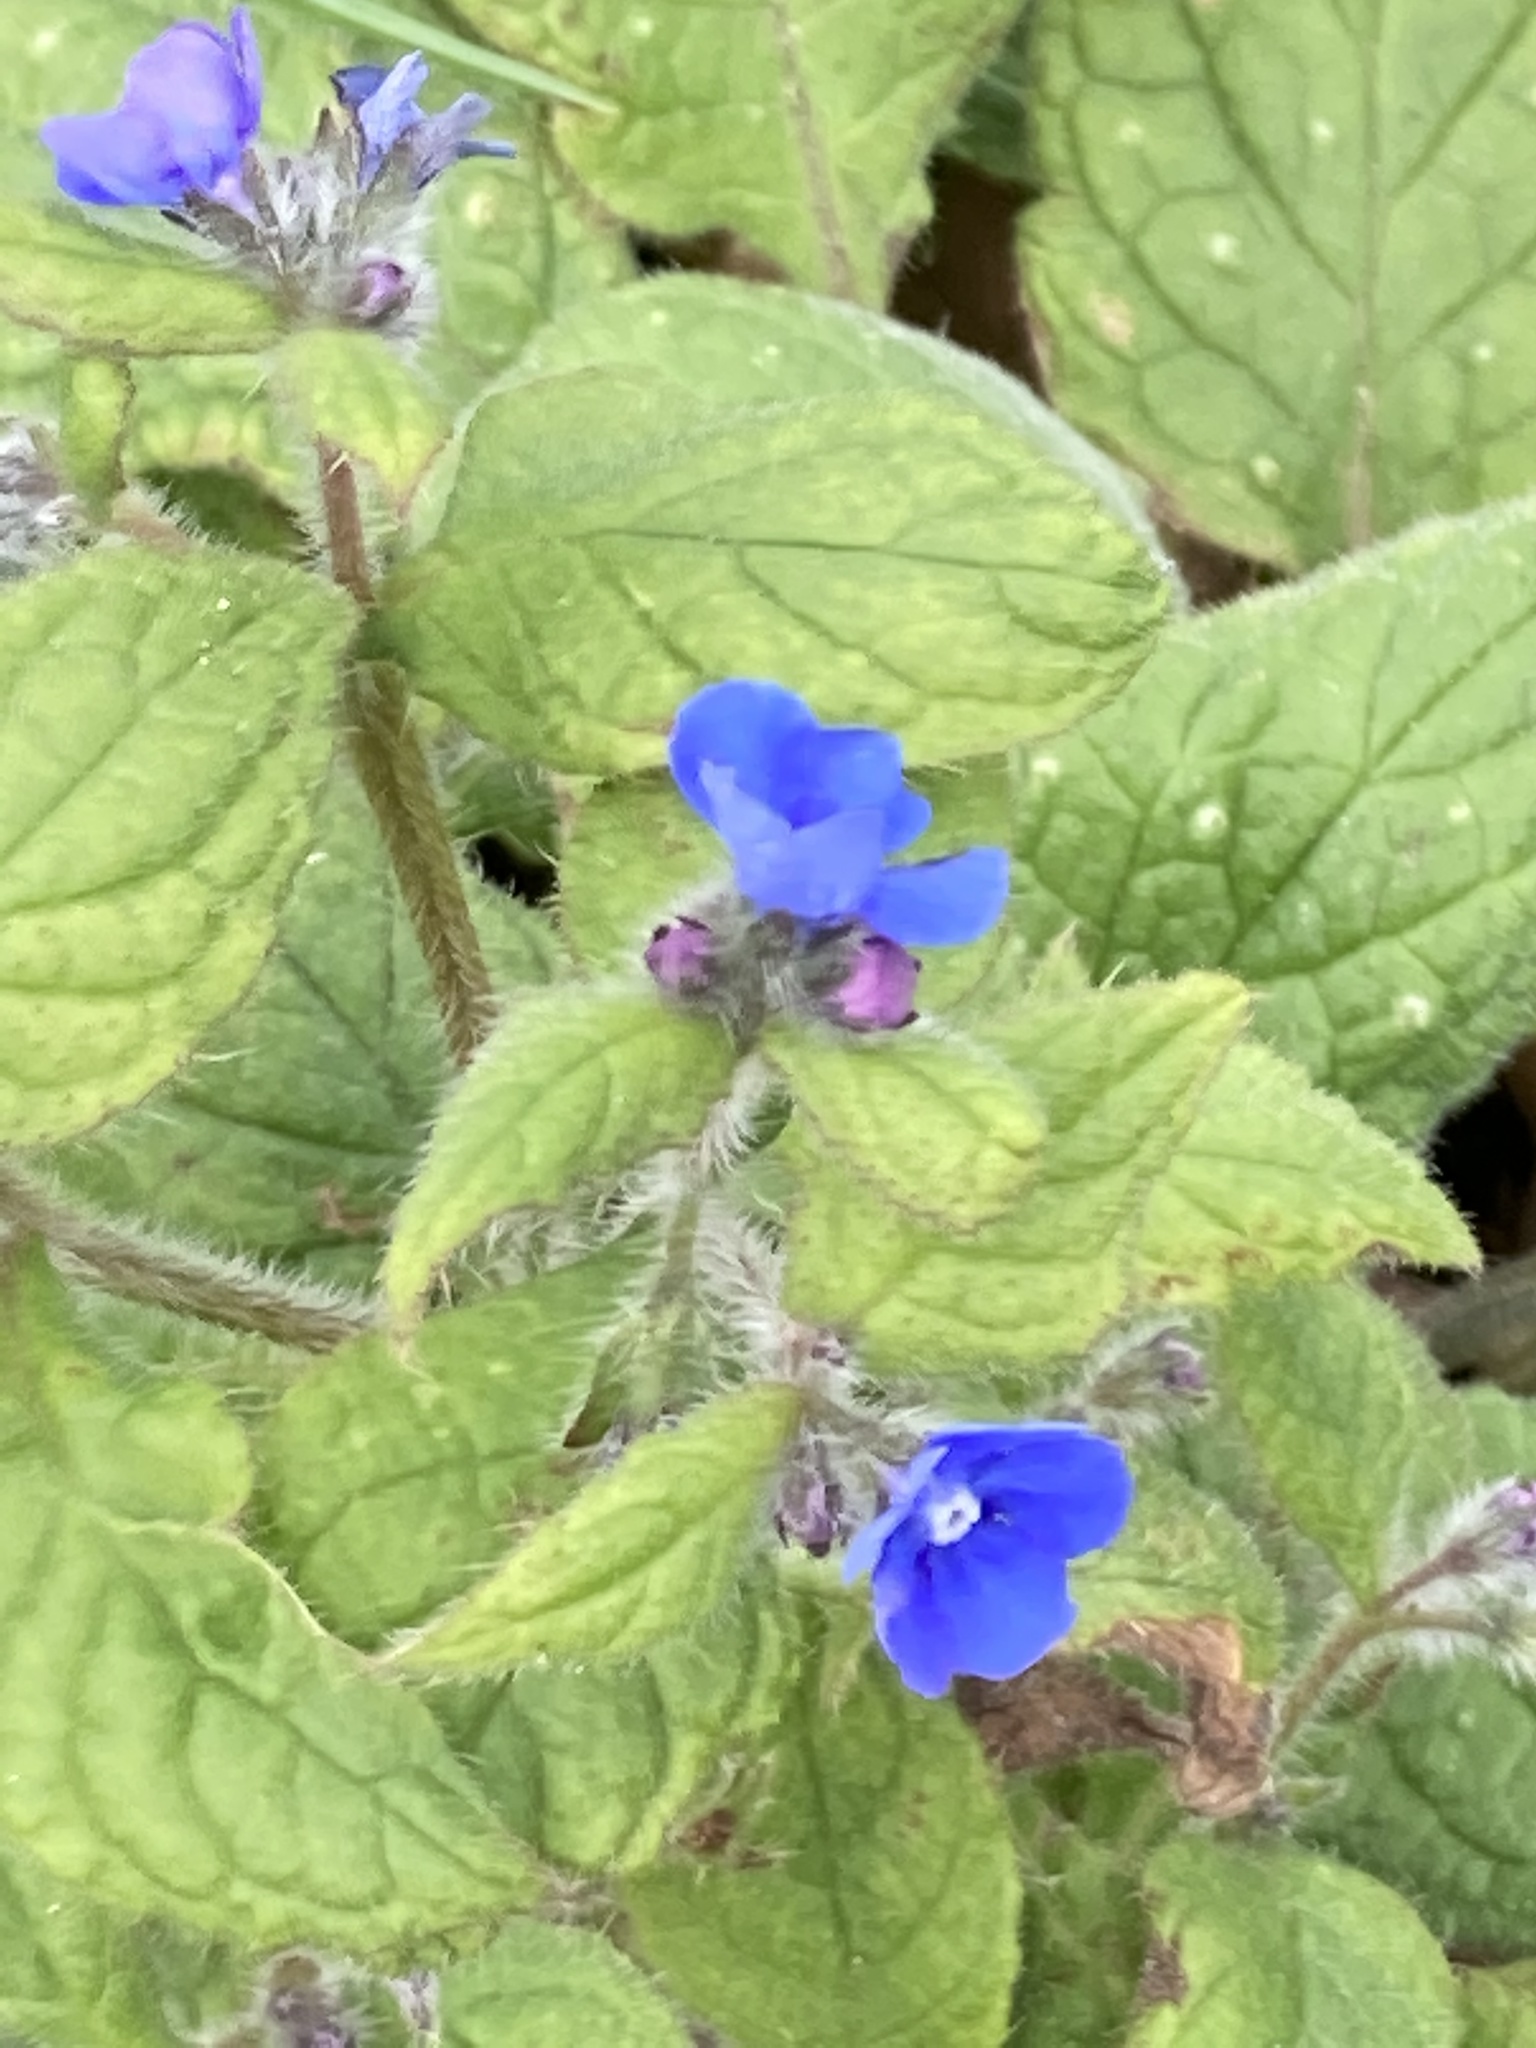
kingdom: Plantae
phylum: Tracheophyta
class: Magnoliopsida
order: Boraginales
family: Boraginaceae
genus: Pentaglottis
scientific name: Pentaglottis sempervirens
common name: Green alkanet
